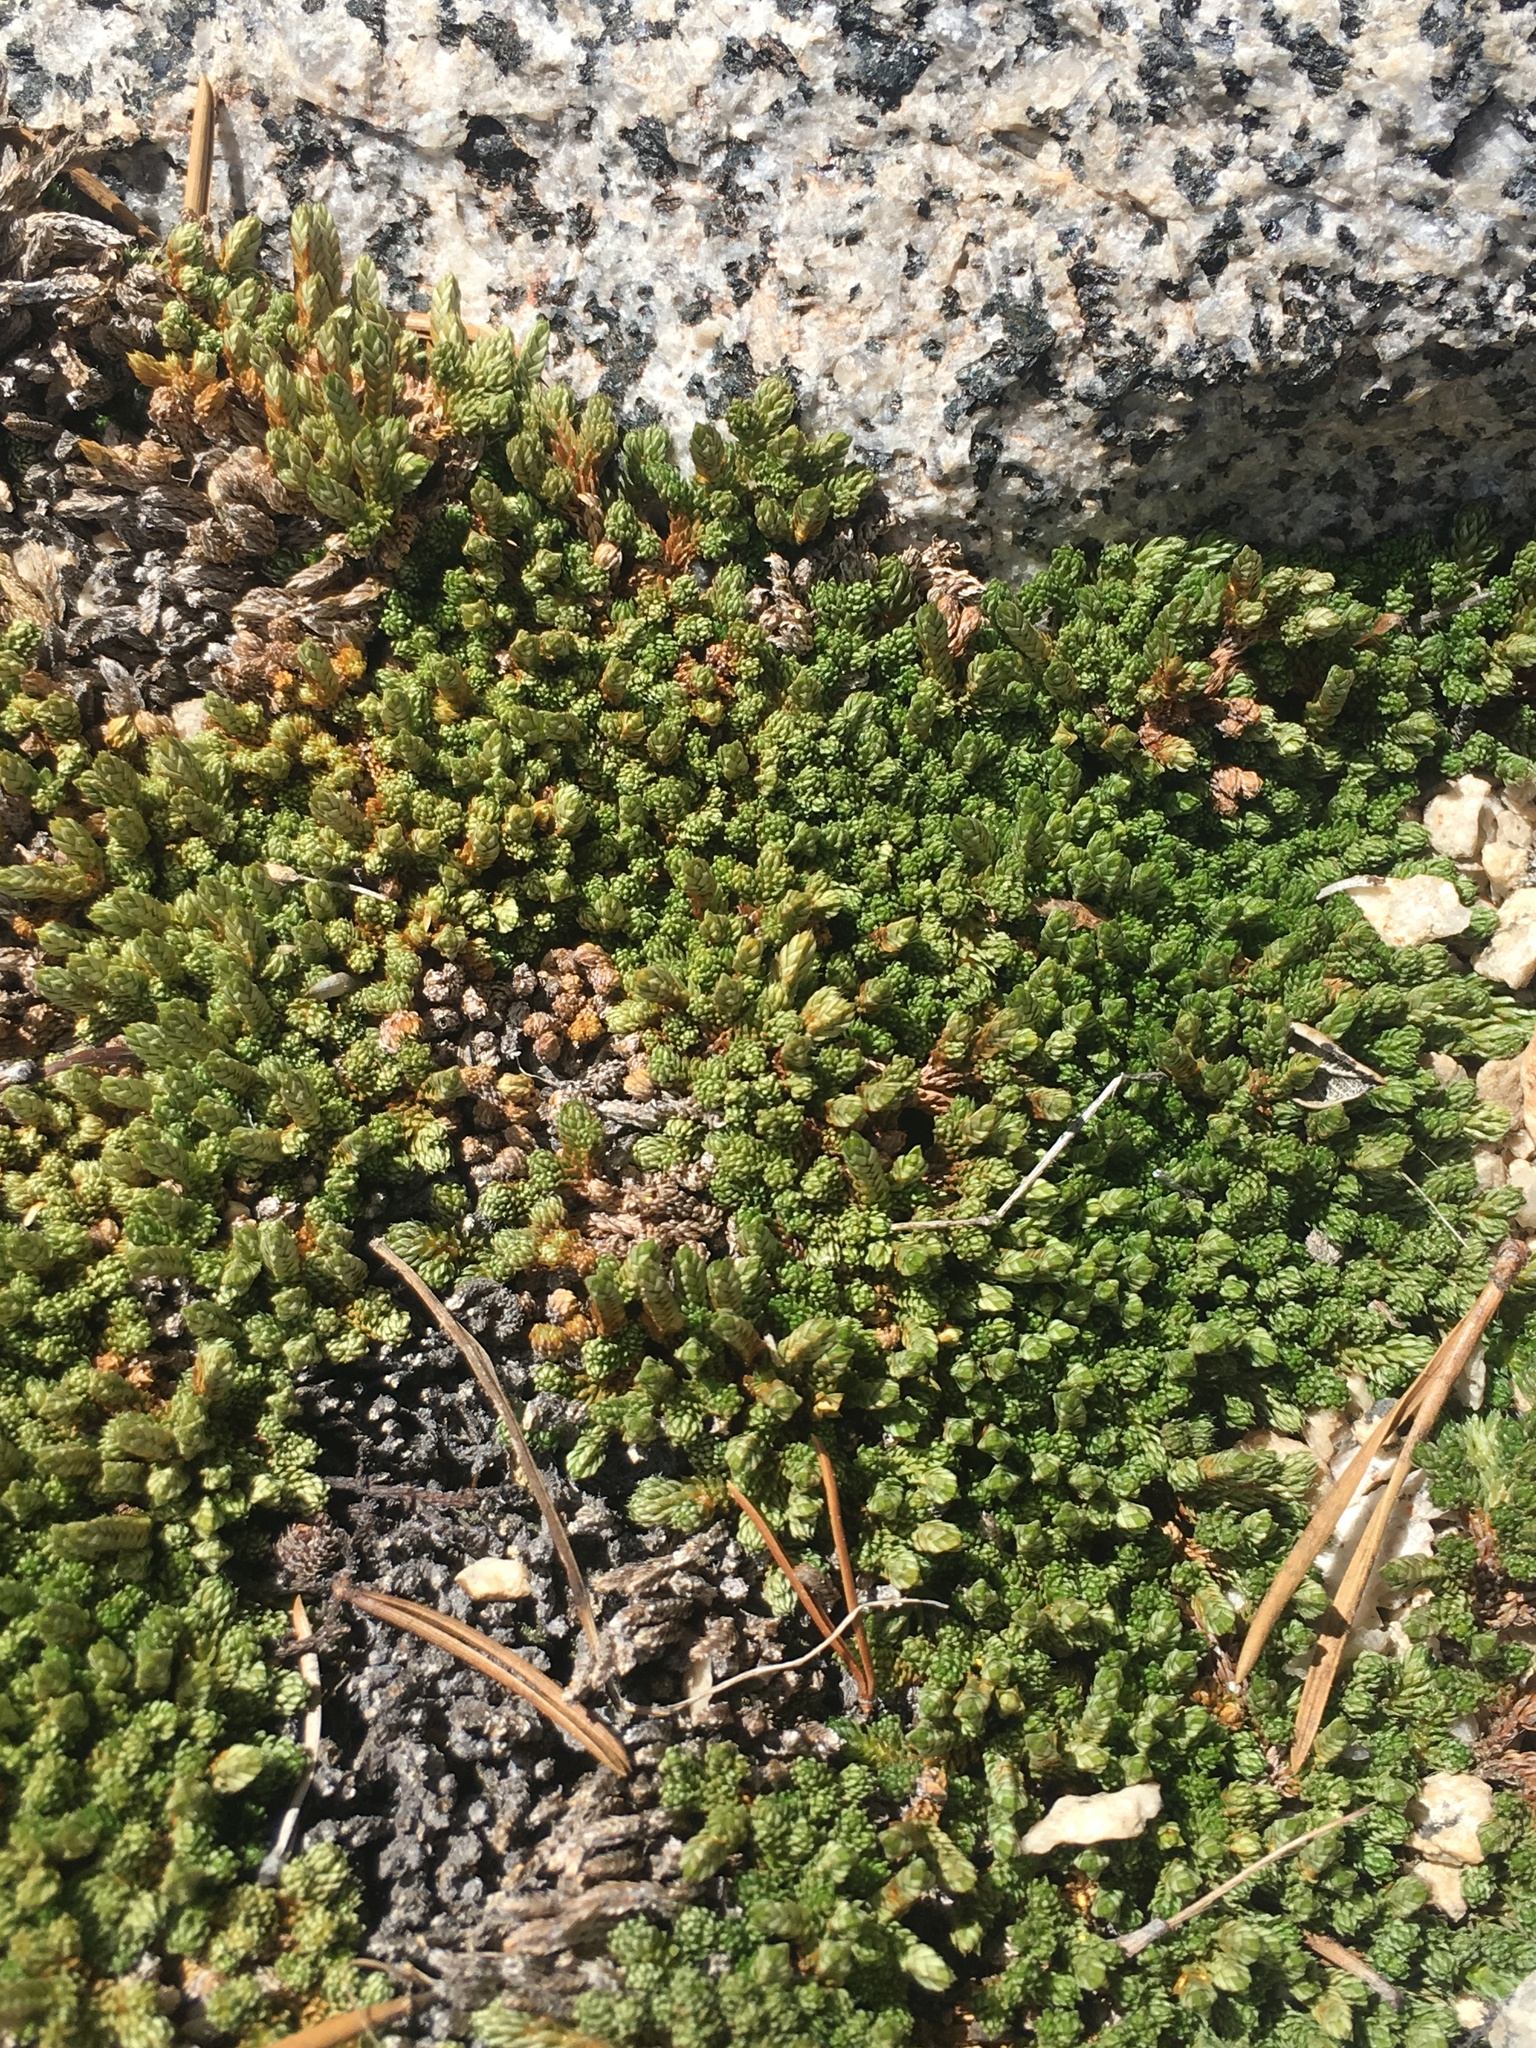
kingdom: Plantae
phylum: Tracheophyta
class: Lycopodiopsida
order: Selaginellales
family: Selaginellaceae
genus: Selaginella
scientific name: Selaginella watsonii
